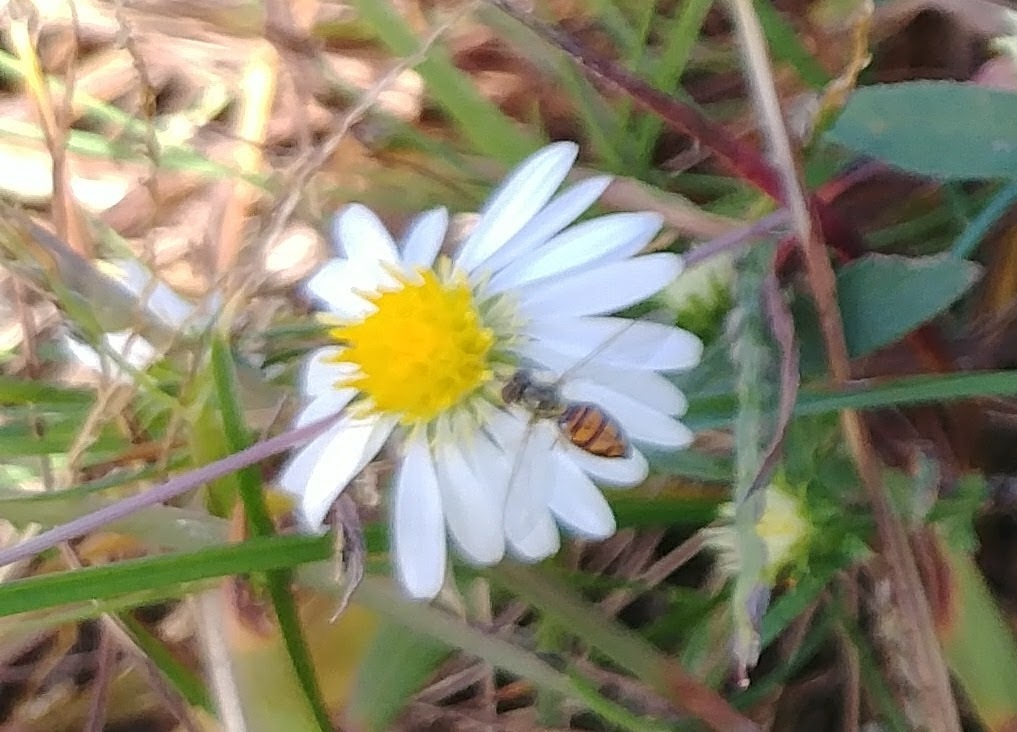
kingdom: Animalia
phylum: Arthropoda
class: Insecta
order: Diptera
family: Syrphidae
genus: Toxomerus
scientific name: Toxomerus marginatus
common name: Syrphid fly
